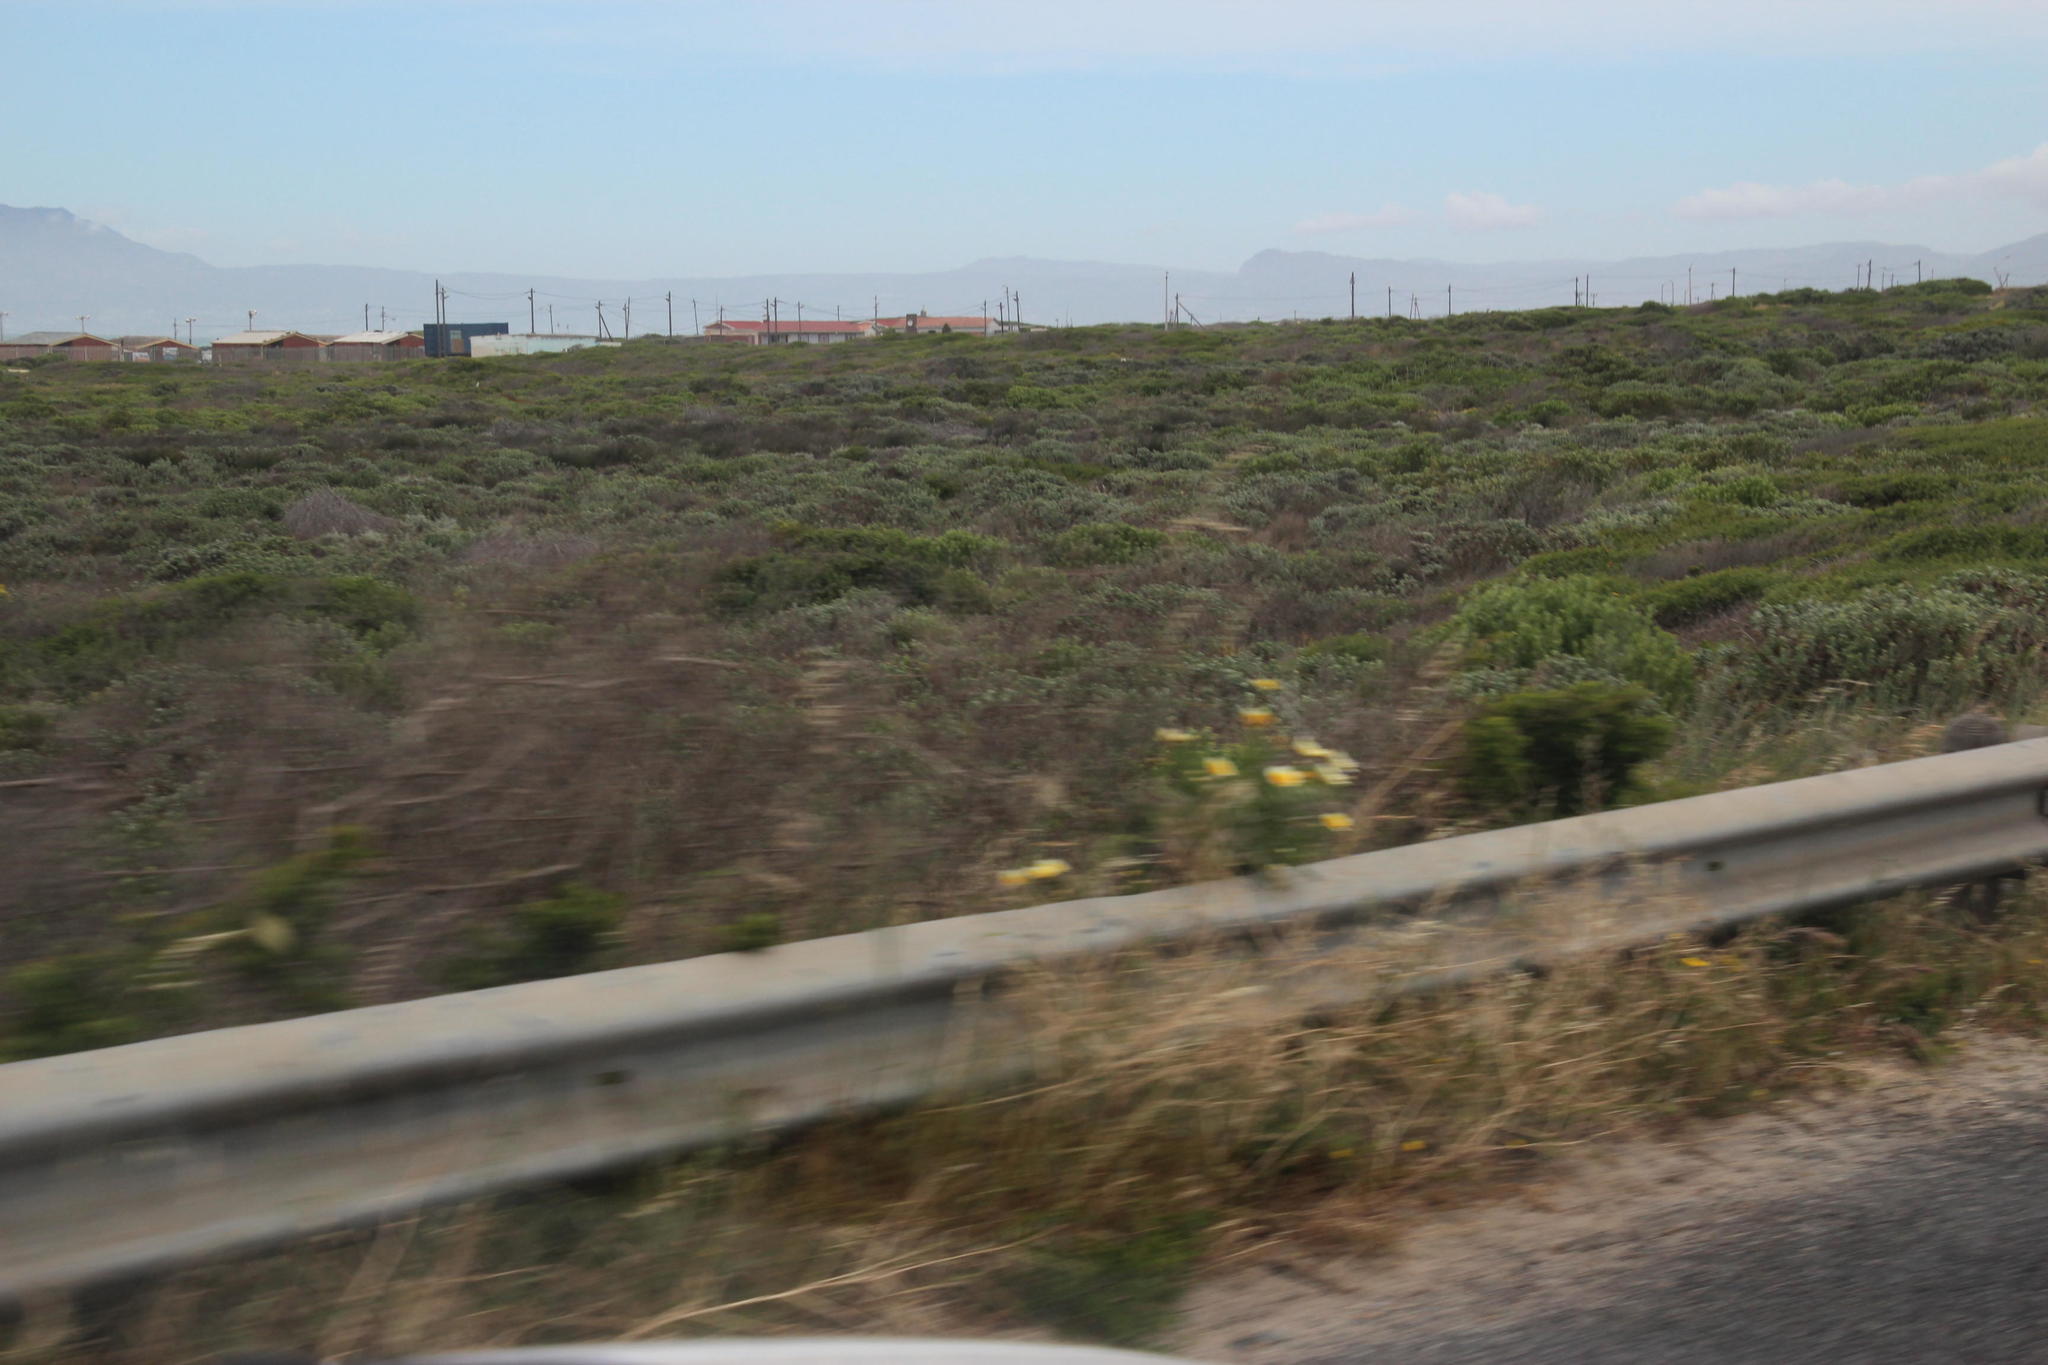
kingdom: Plantae
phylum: Tracheophyta
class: Magnoliopsida
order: Asterales
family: Asteraceae
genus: Glebionis
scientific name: Glebionis coronaria
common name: Crowndaisy
